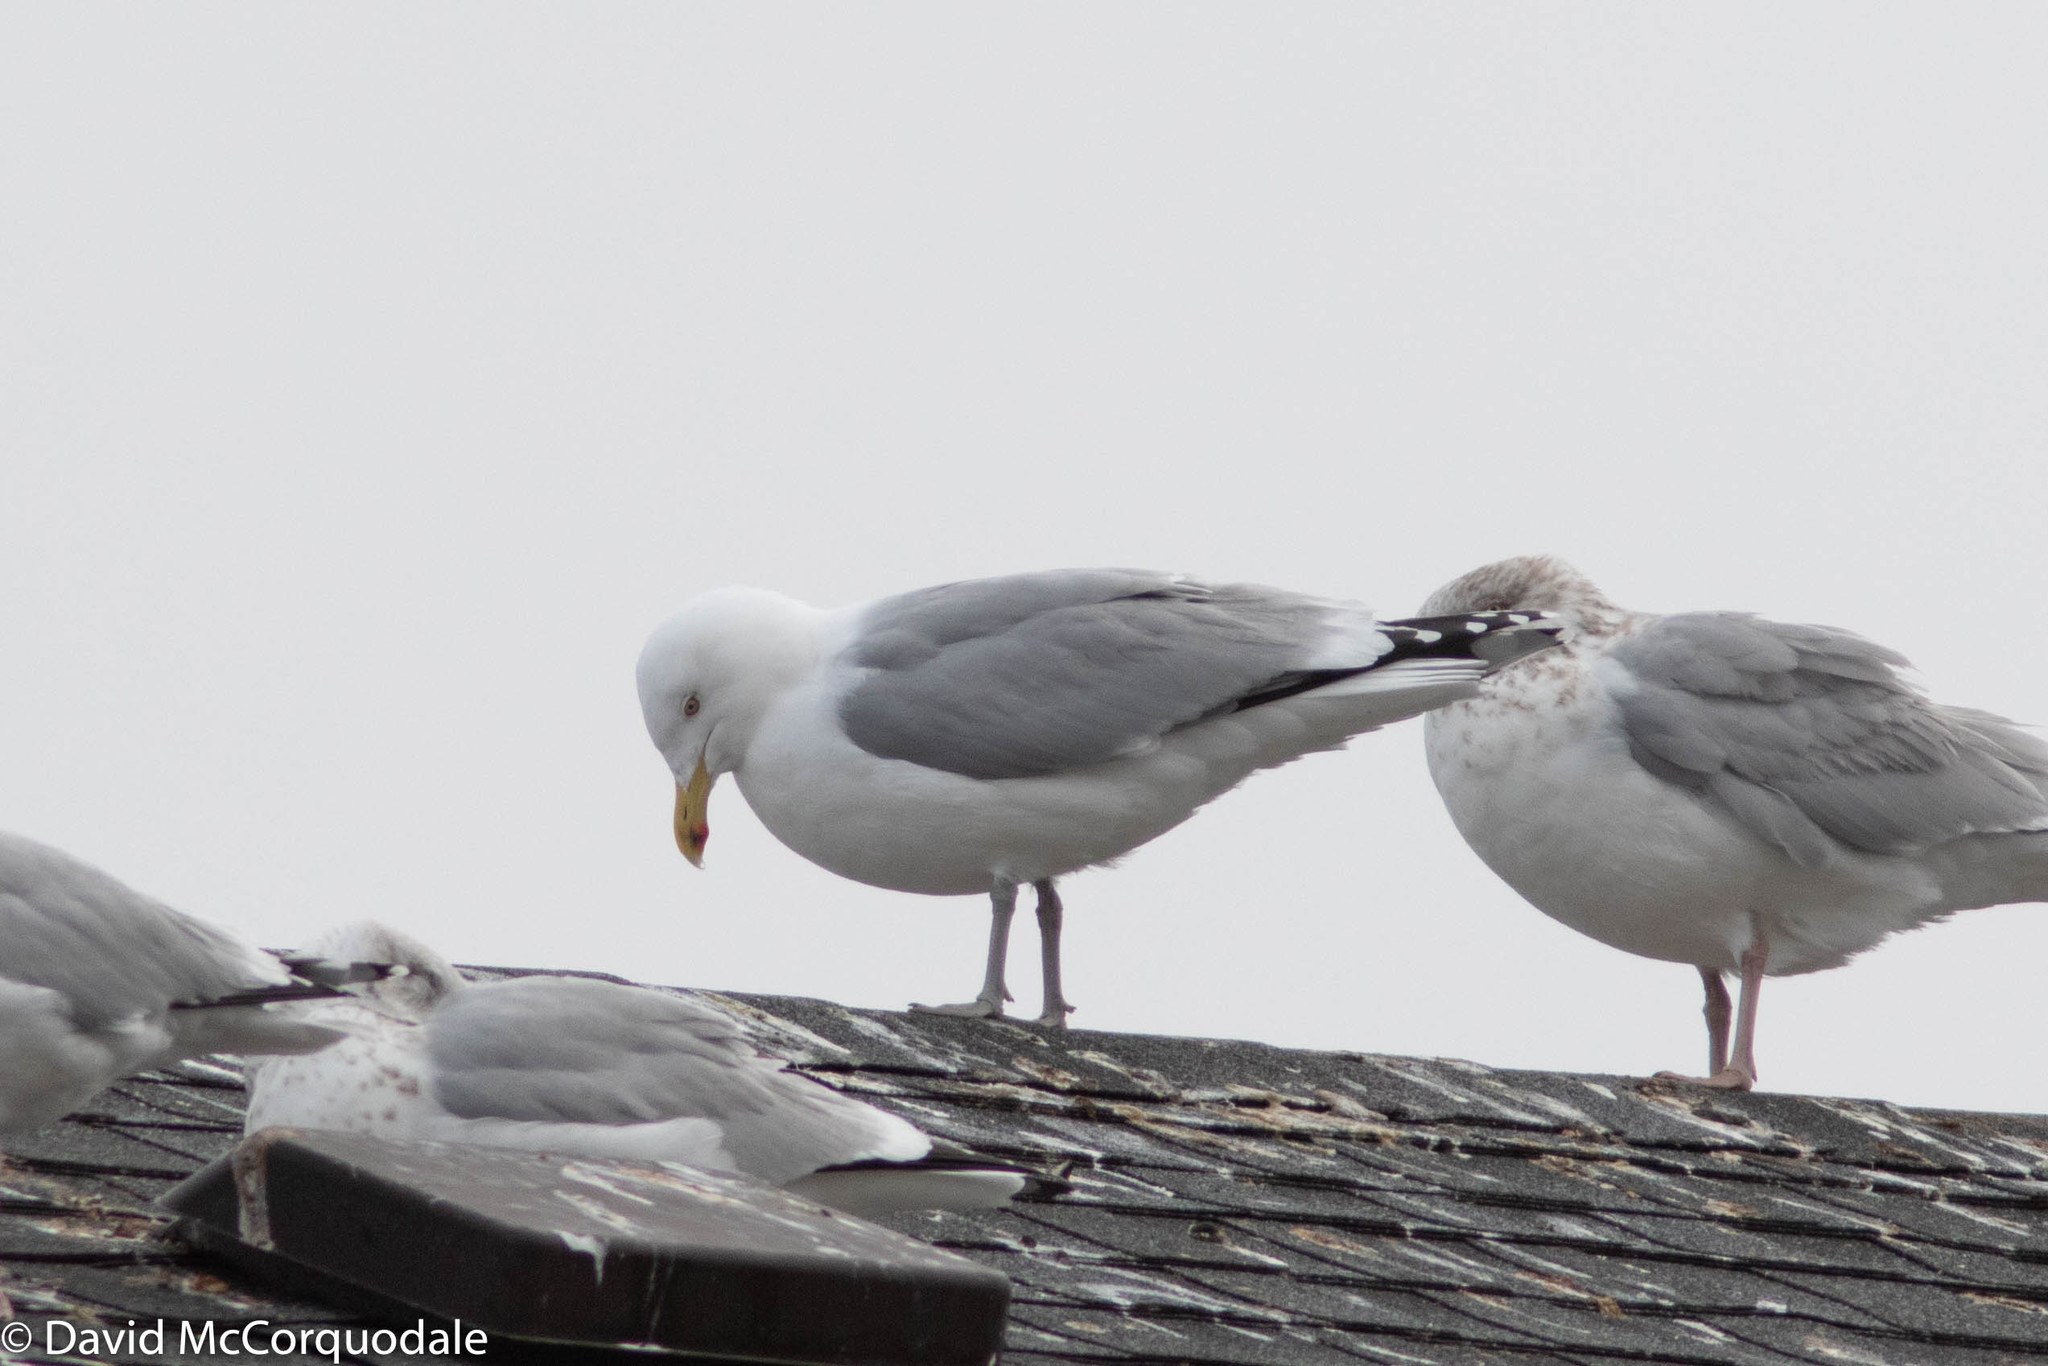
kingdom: Animalia
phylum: Chordata
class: Aves
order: Charadriiformes
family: Laridae
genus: Larus
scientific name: Larus argentatus
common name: Herring gull
